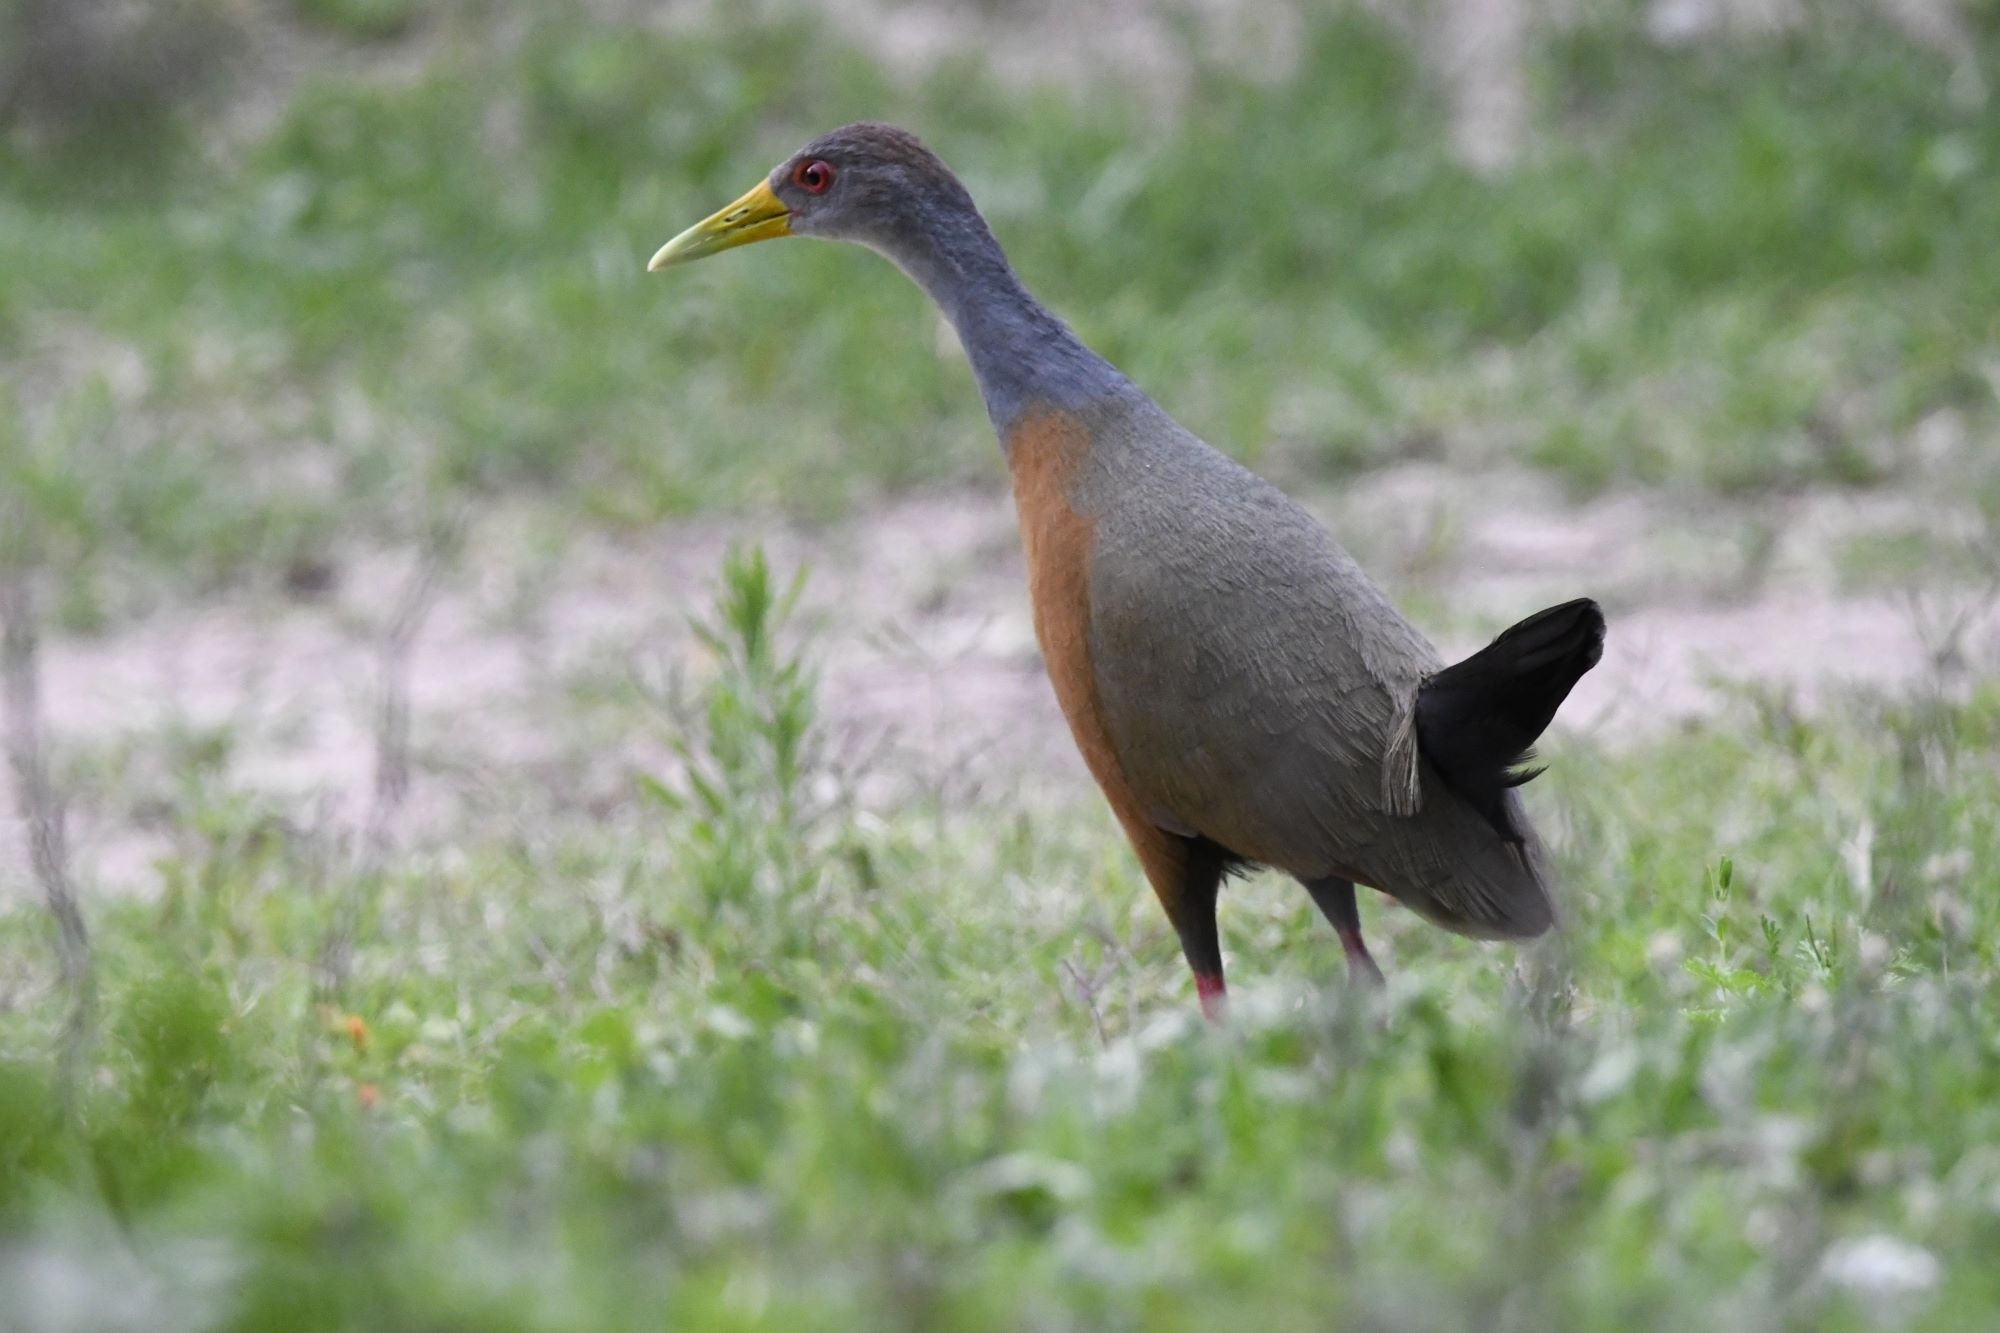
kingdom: Animalia
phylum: Chordata
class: Aves
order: Gruiformes
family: Rallidae
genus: Aramides
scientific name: Aramides cajanea
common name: Gray-necked wood-rail
